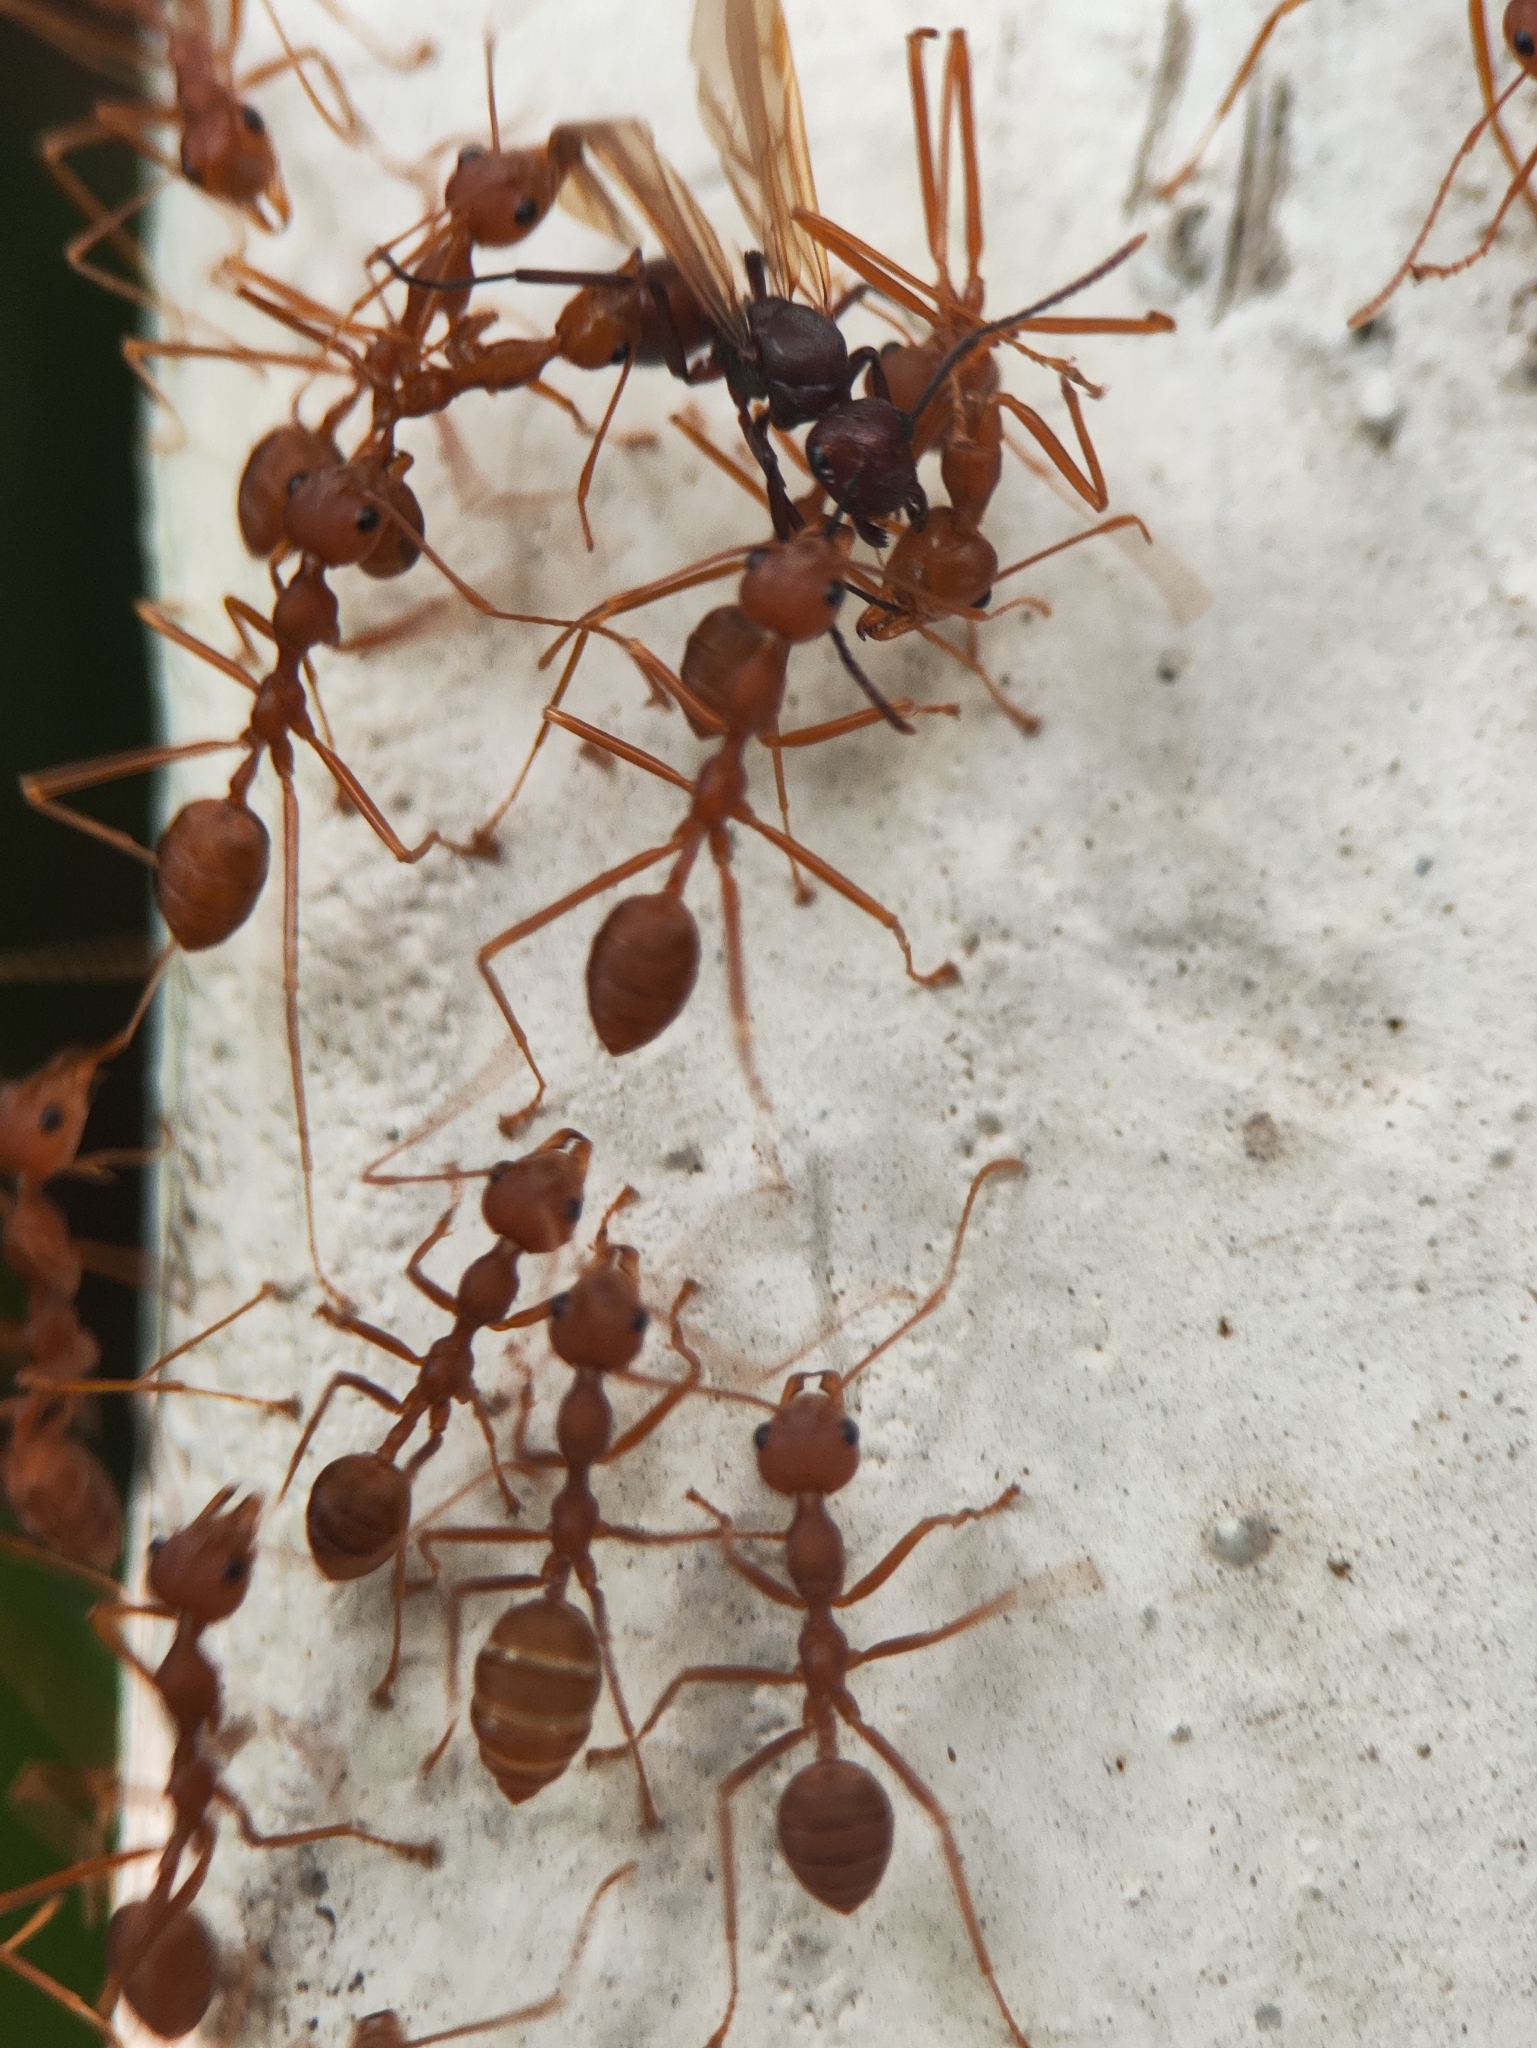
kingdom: Animalia
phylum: Arthropoda
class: Insecta
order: Hymenoptera
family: Formicidae
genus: Polyrhachis
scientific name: Polyrhachis thrinax
